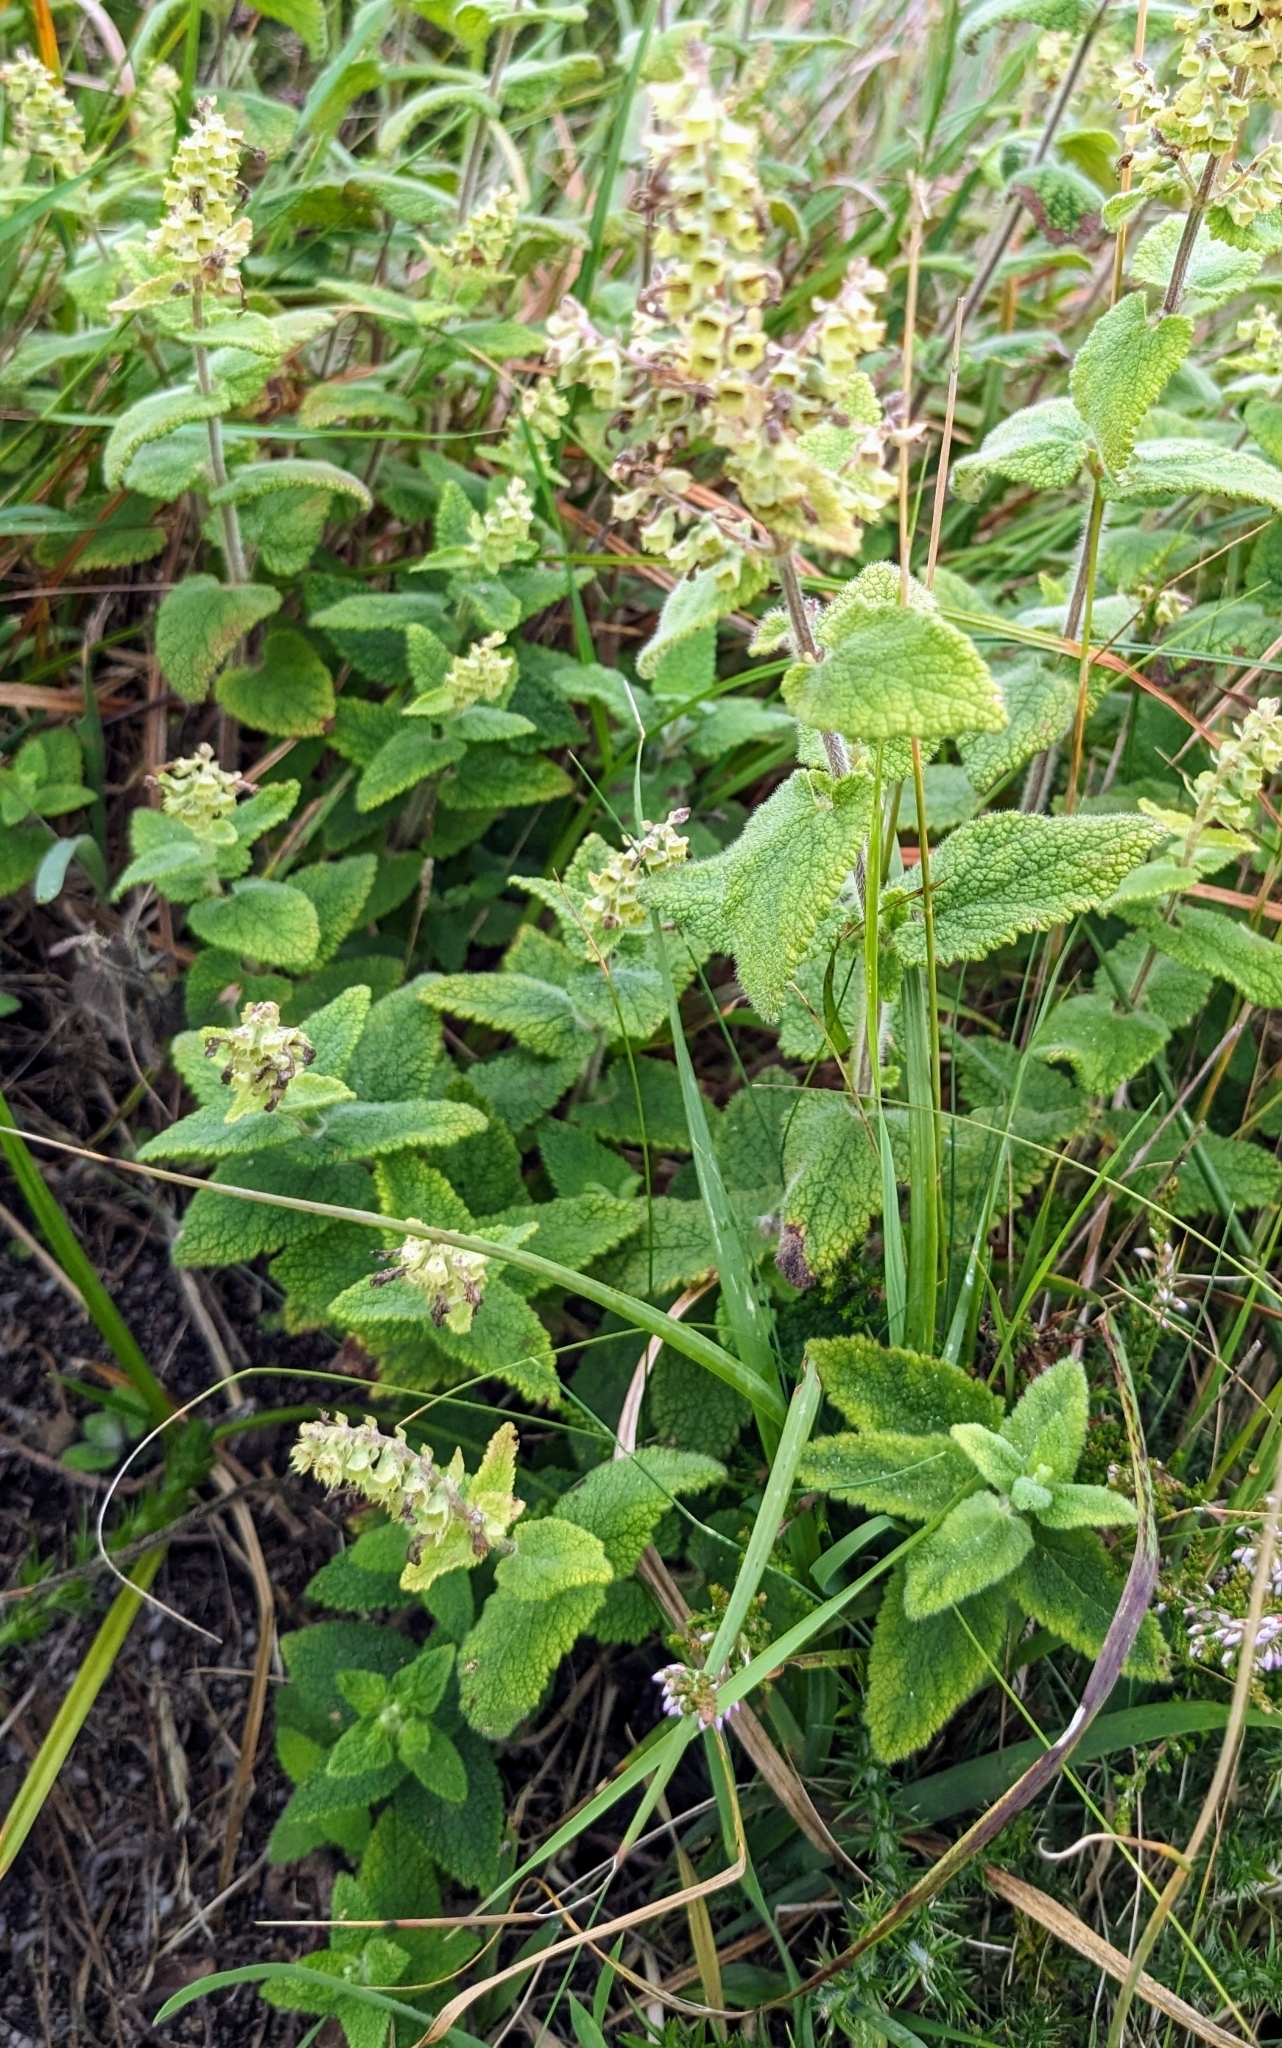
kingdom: Plantae
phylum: Tracheophyta
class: Magnoliopsida
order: Lamiales
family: Lamiaceae
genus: Teucrium
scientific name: Teucrium scorodonia
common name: Woodland germander
